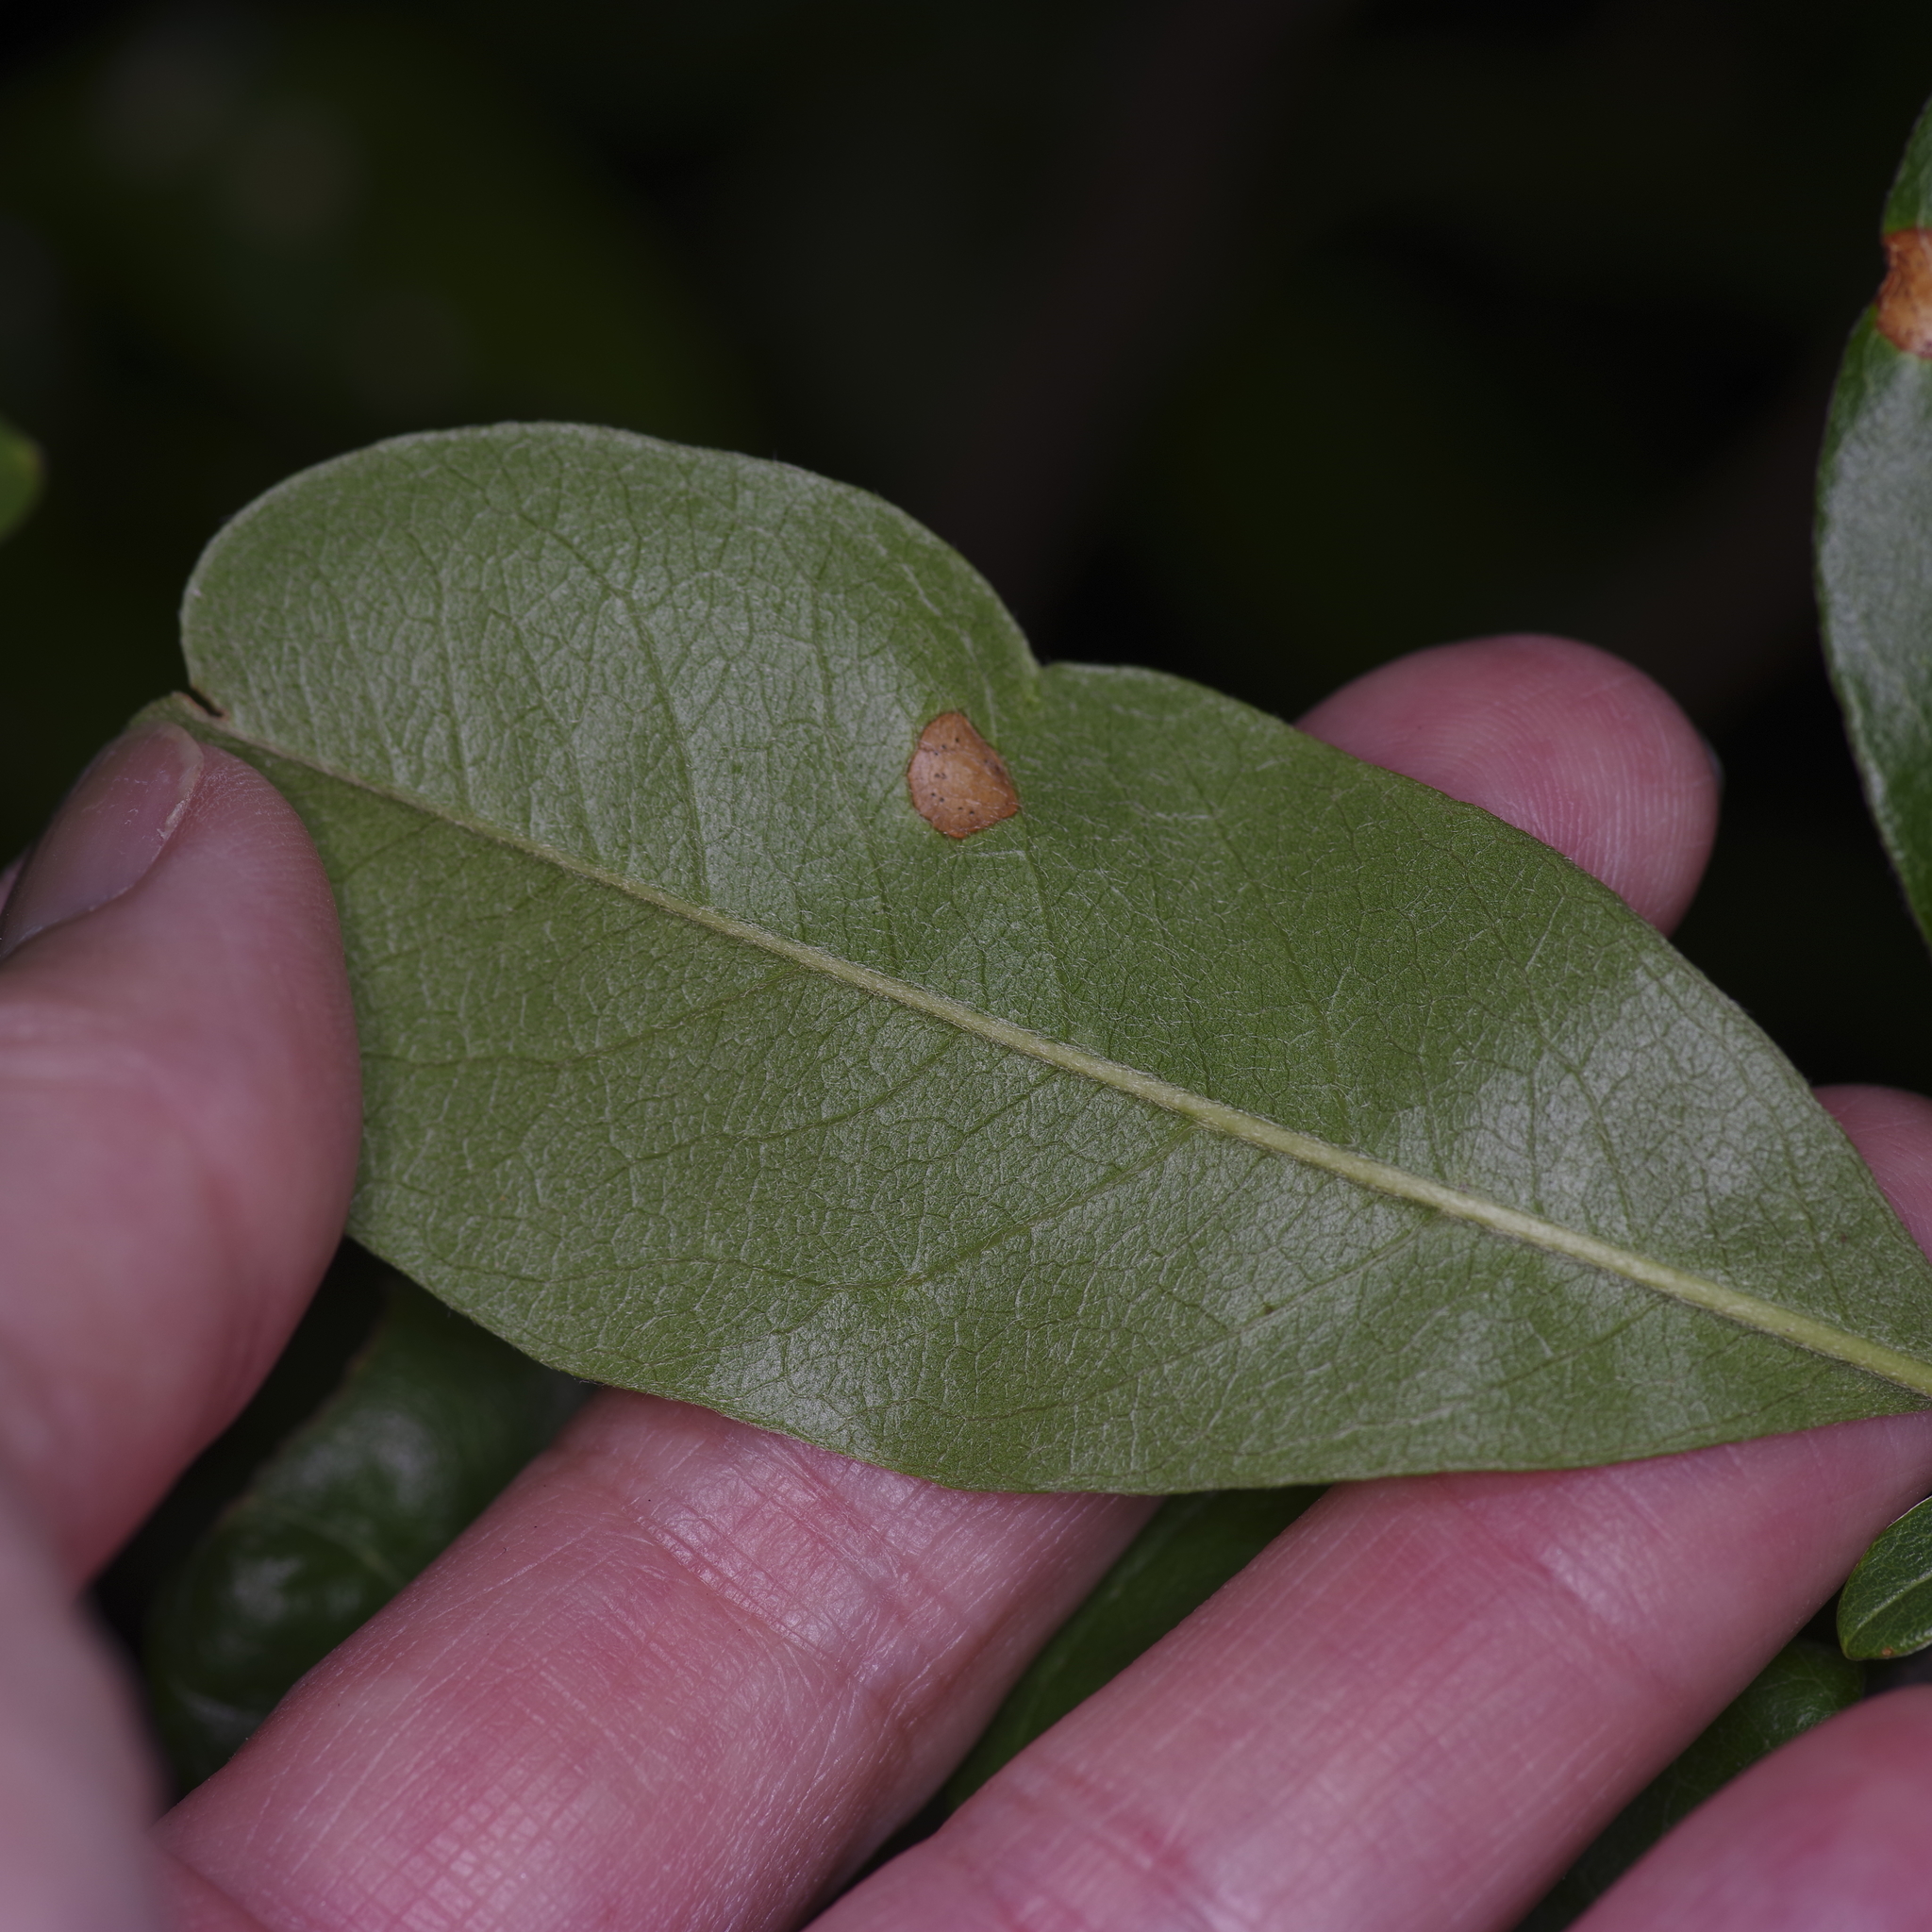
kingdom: Plantae
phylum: Tracheophyta
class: Magnoliopsida
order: Ericales
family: Sapotaceae
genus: Sideroxylon
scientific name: Sideroxylon lanuginosum
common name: Chittamwood
